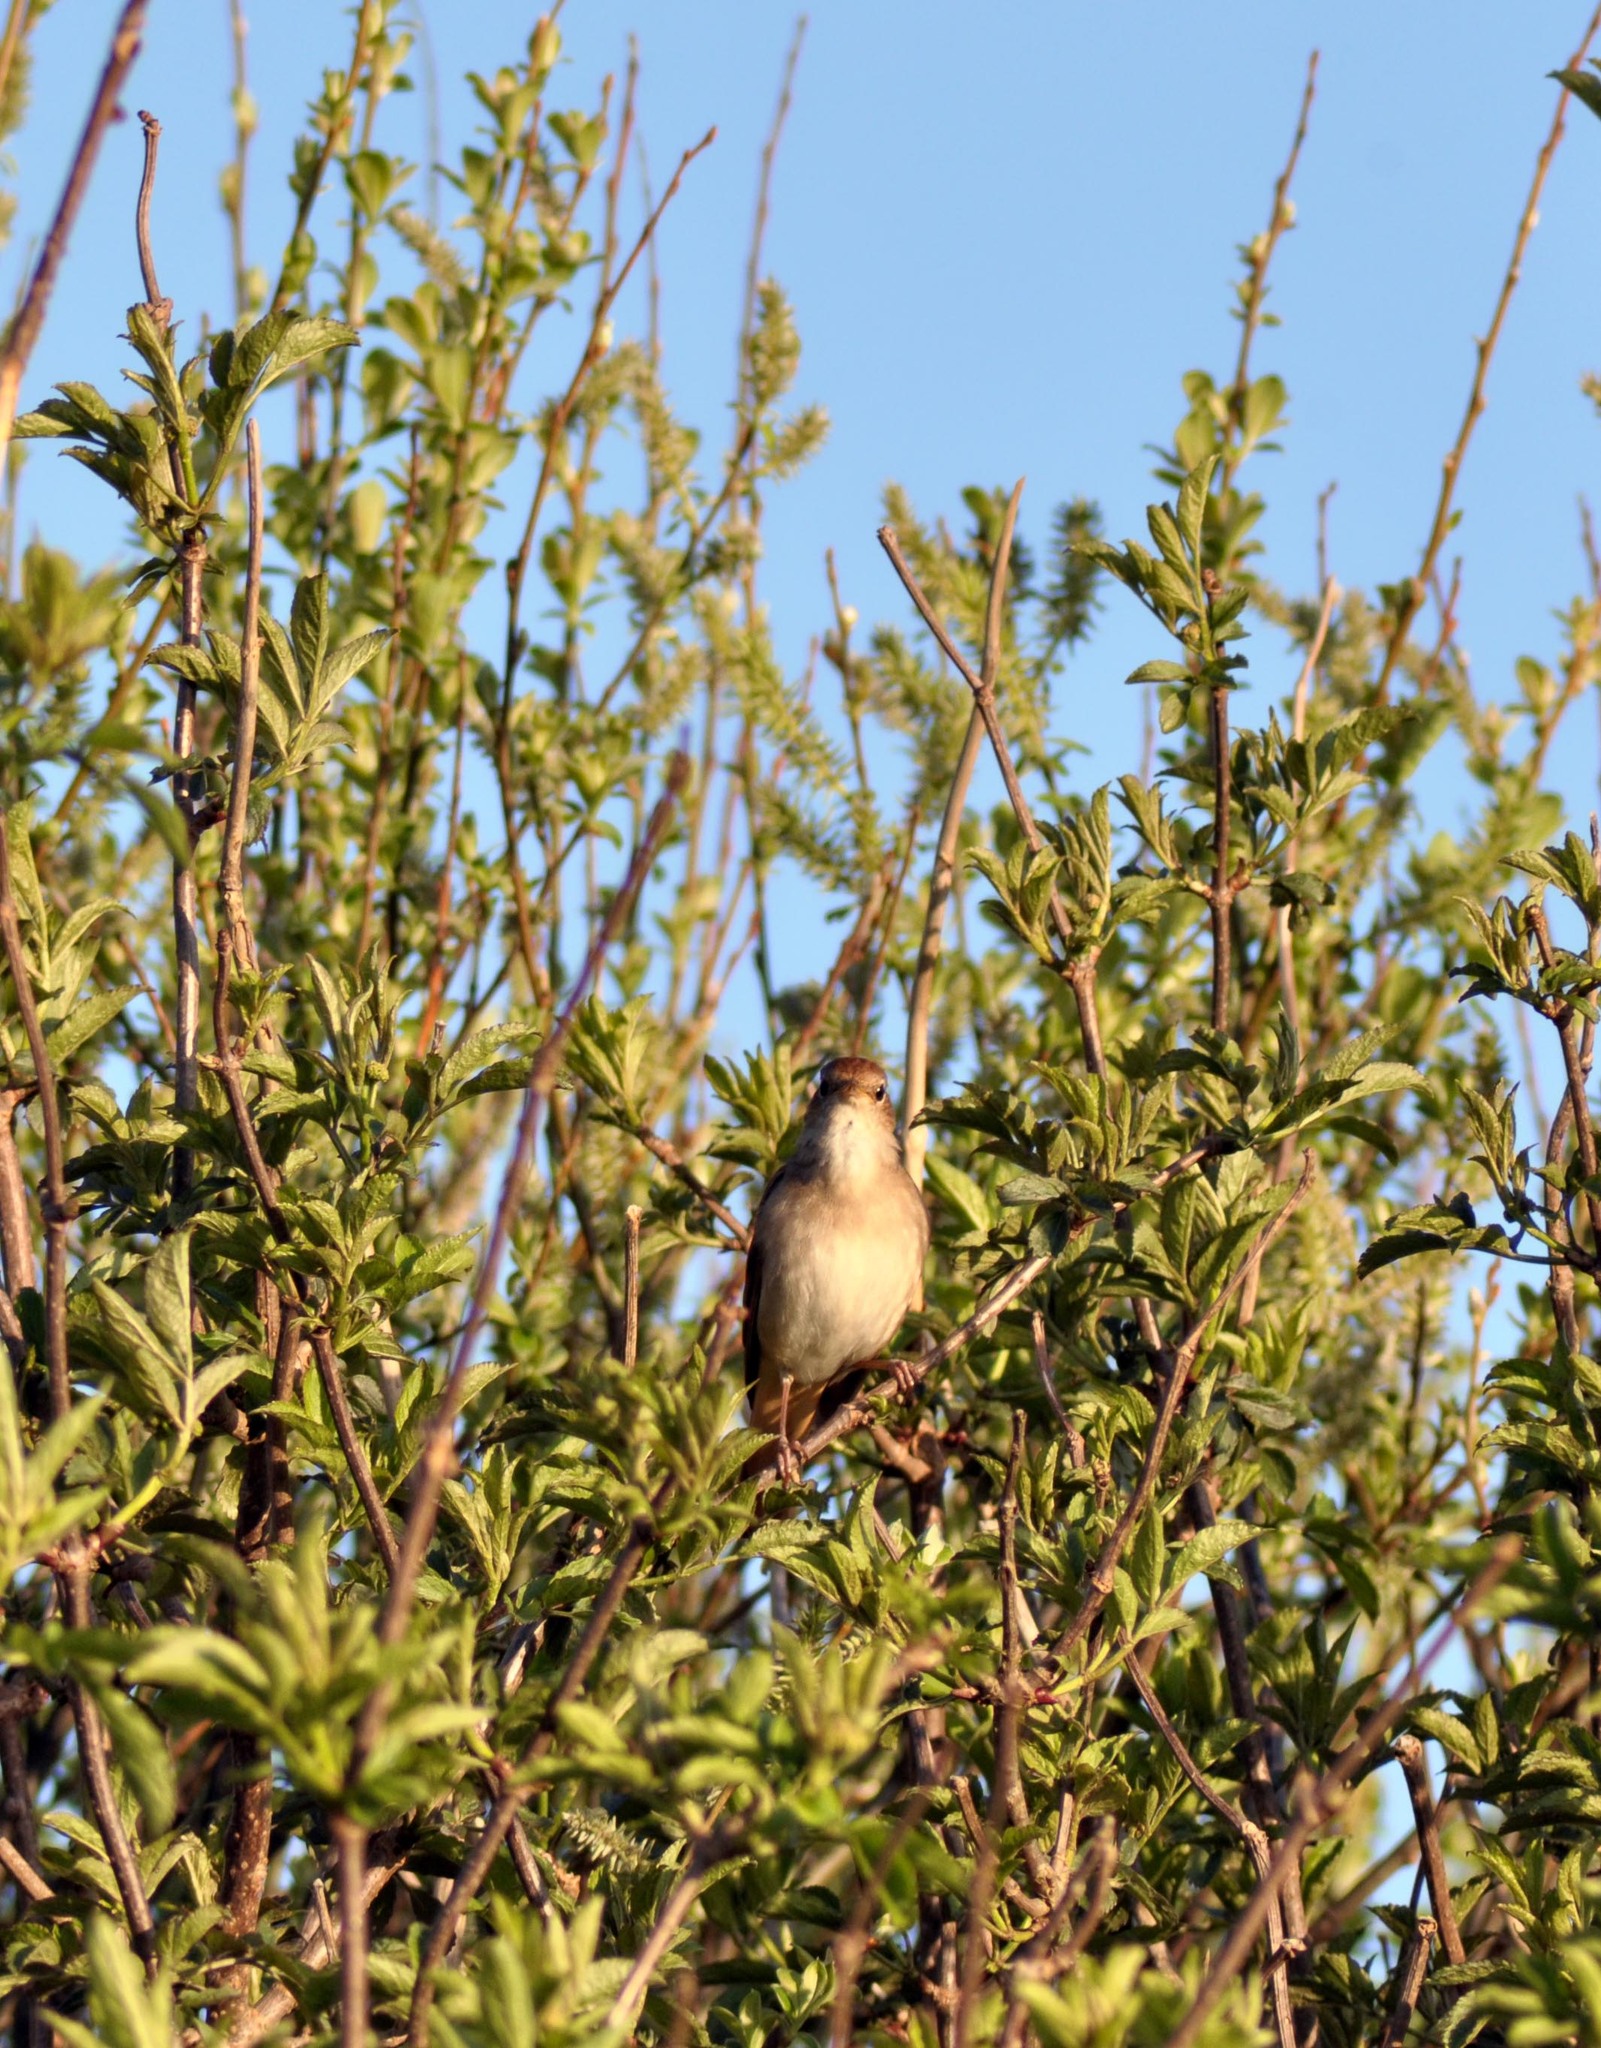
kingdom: Animalia
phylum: Chordata
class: Aves
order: Passeriformes
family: Muscicapidae
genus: Luscinia
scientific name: Luscinia megarhynchos
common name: Common nightingale
